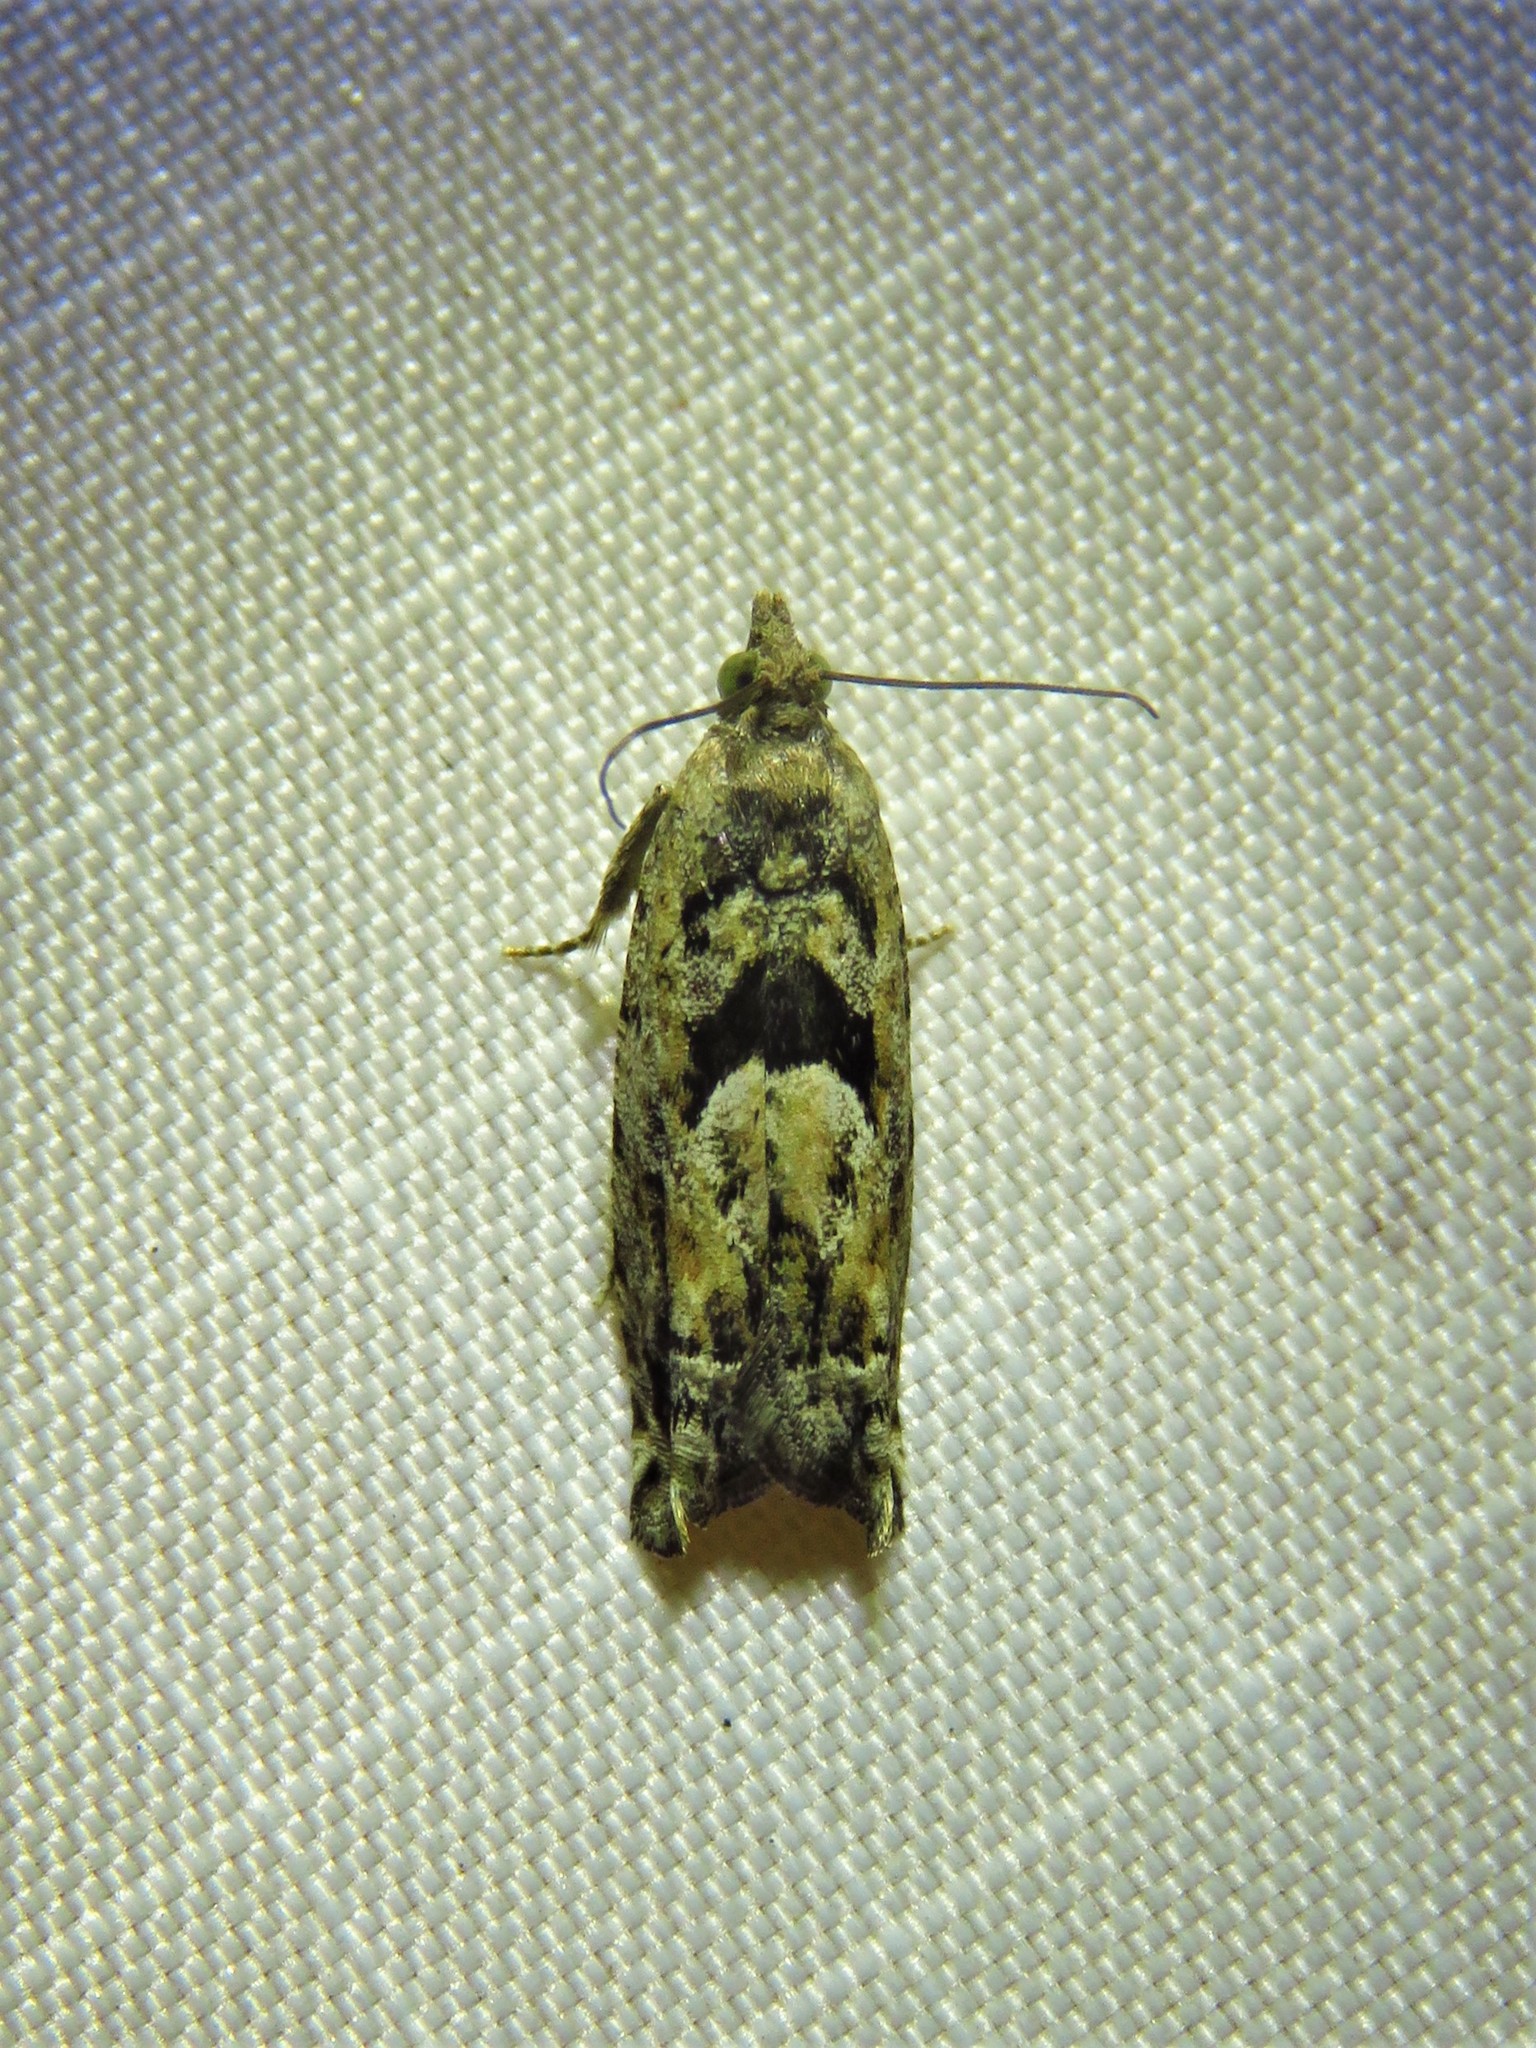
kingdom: Animalia
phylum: Arthropoda
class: Insecta
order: Lepidoptera
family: Tortricidae
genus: Pseudexentera
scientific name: Pseudexentera hodsoni
